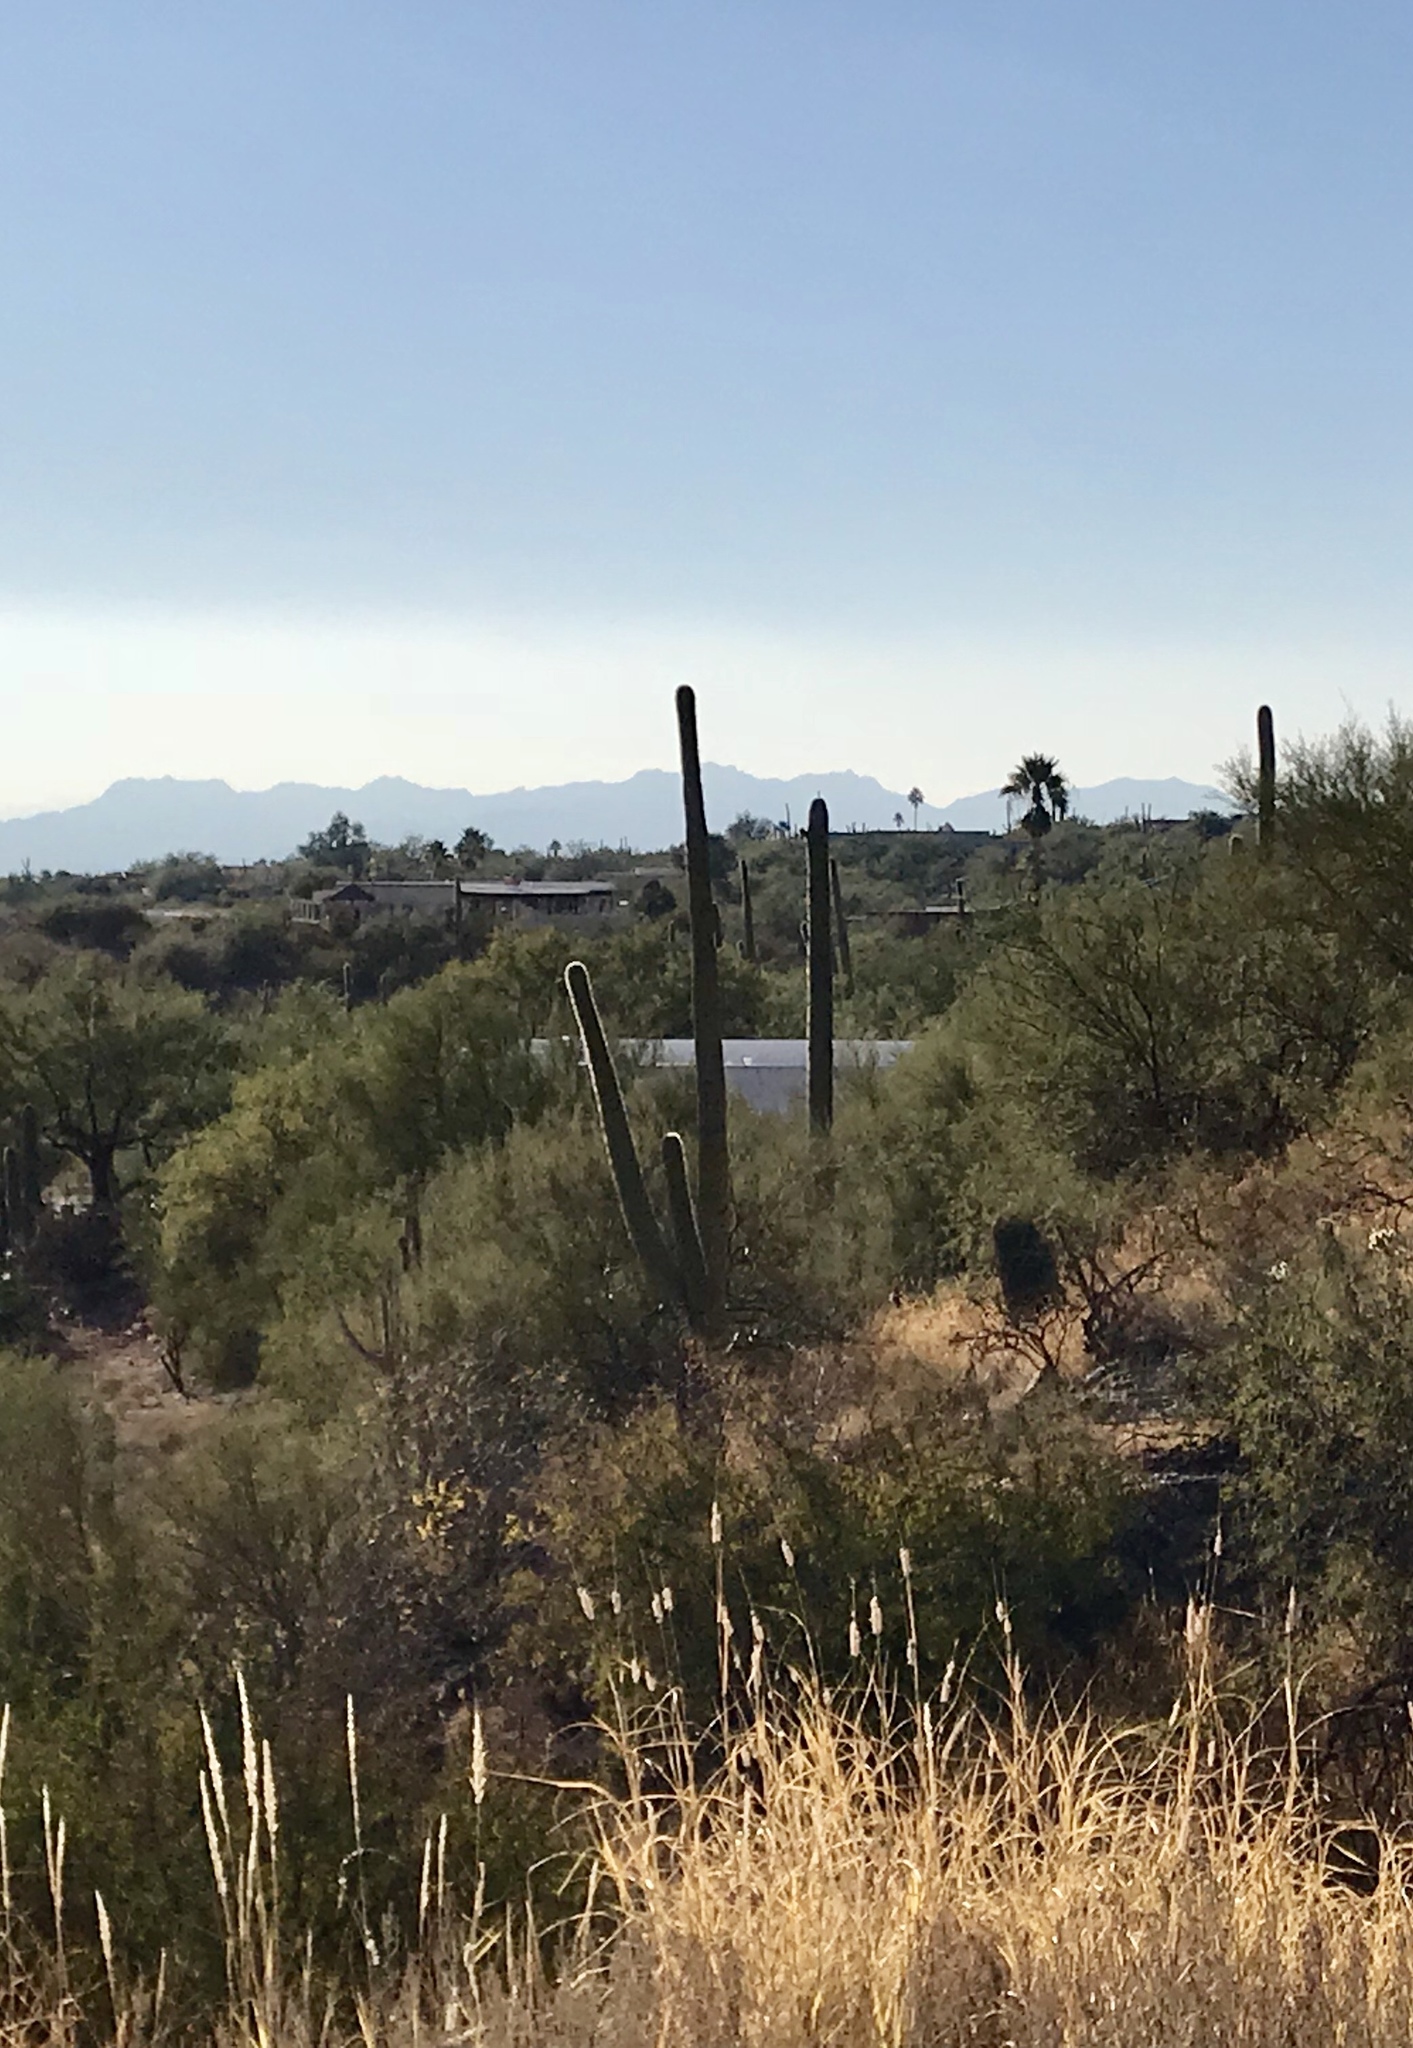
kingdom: Plantae
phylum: Tracheophyta
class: Magnoliopsida
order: Caryophyllales
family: Cactaceae
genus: Carnegiea
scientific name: Carnegiea gigantea
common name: Saguaro
